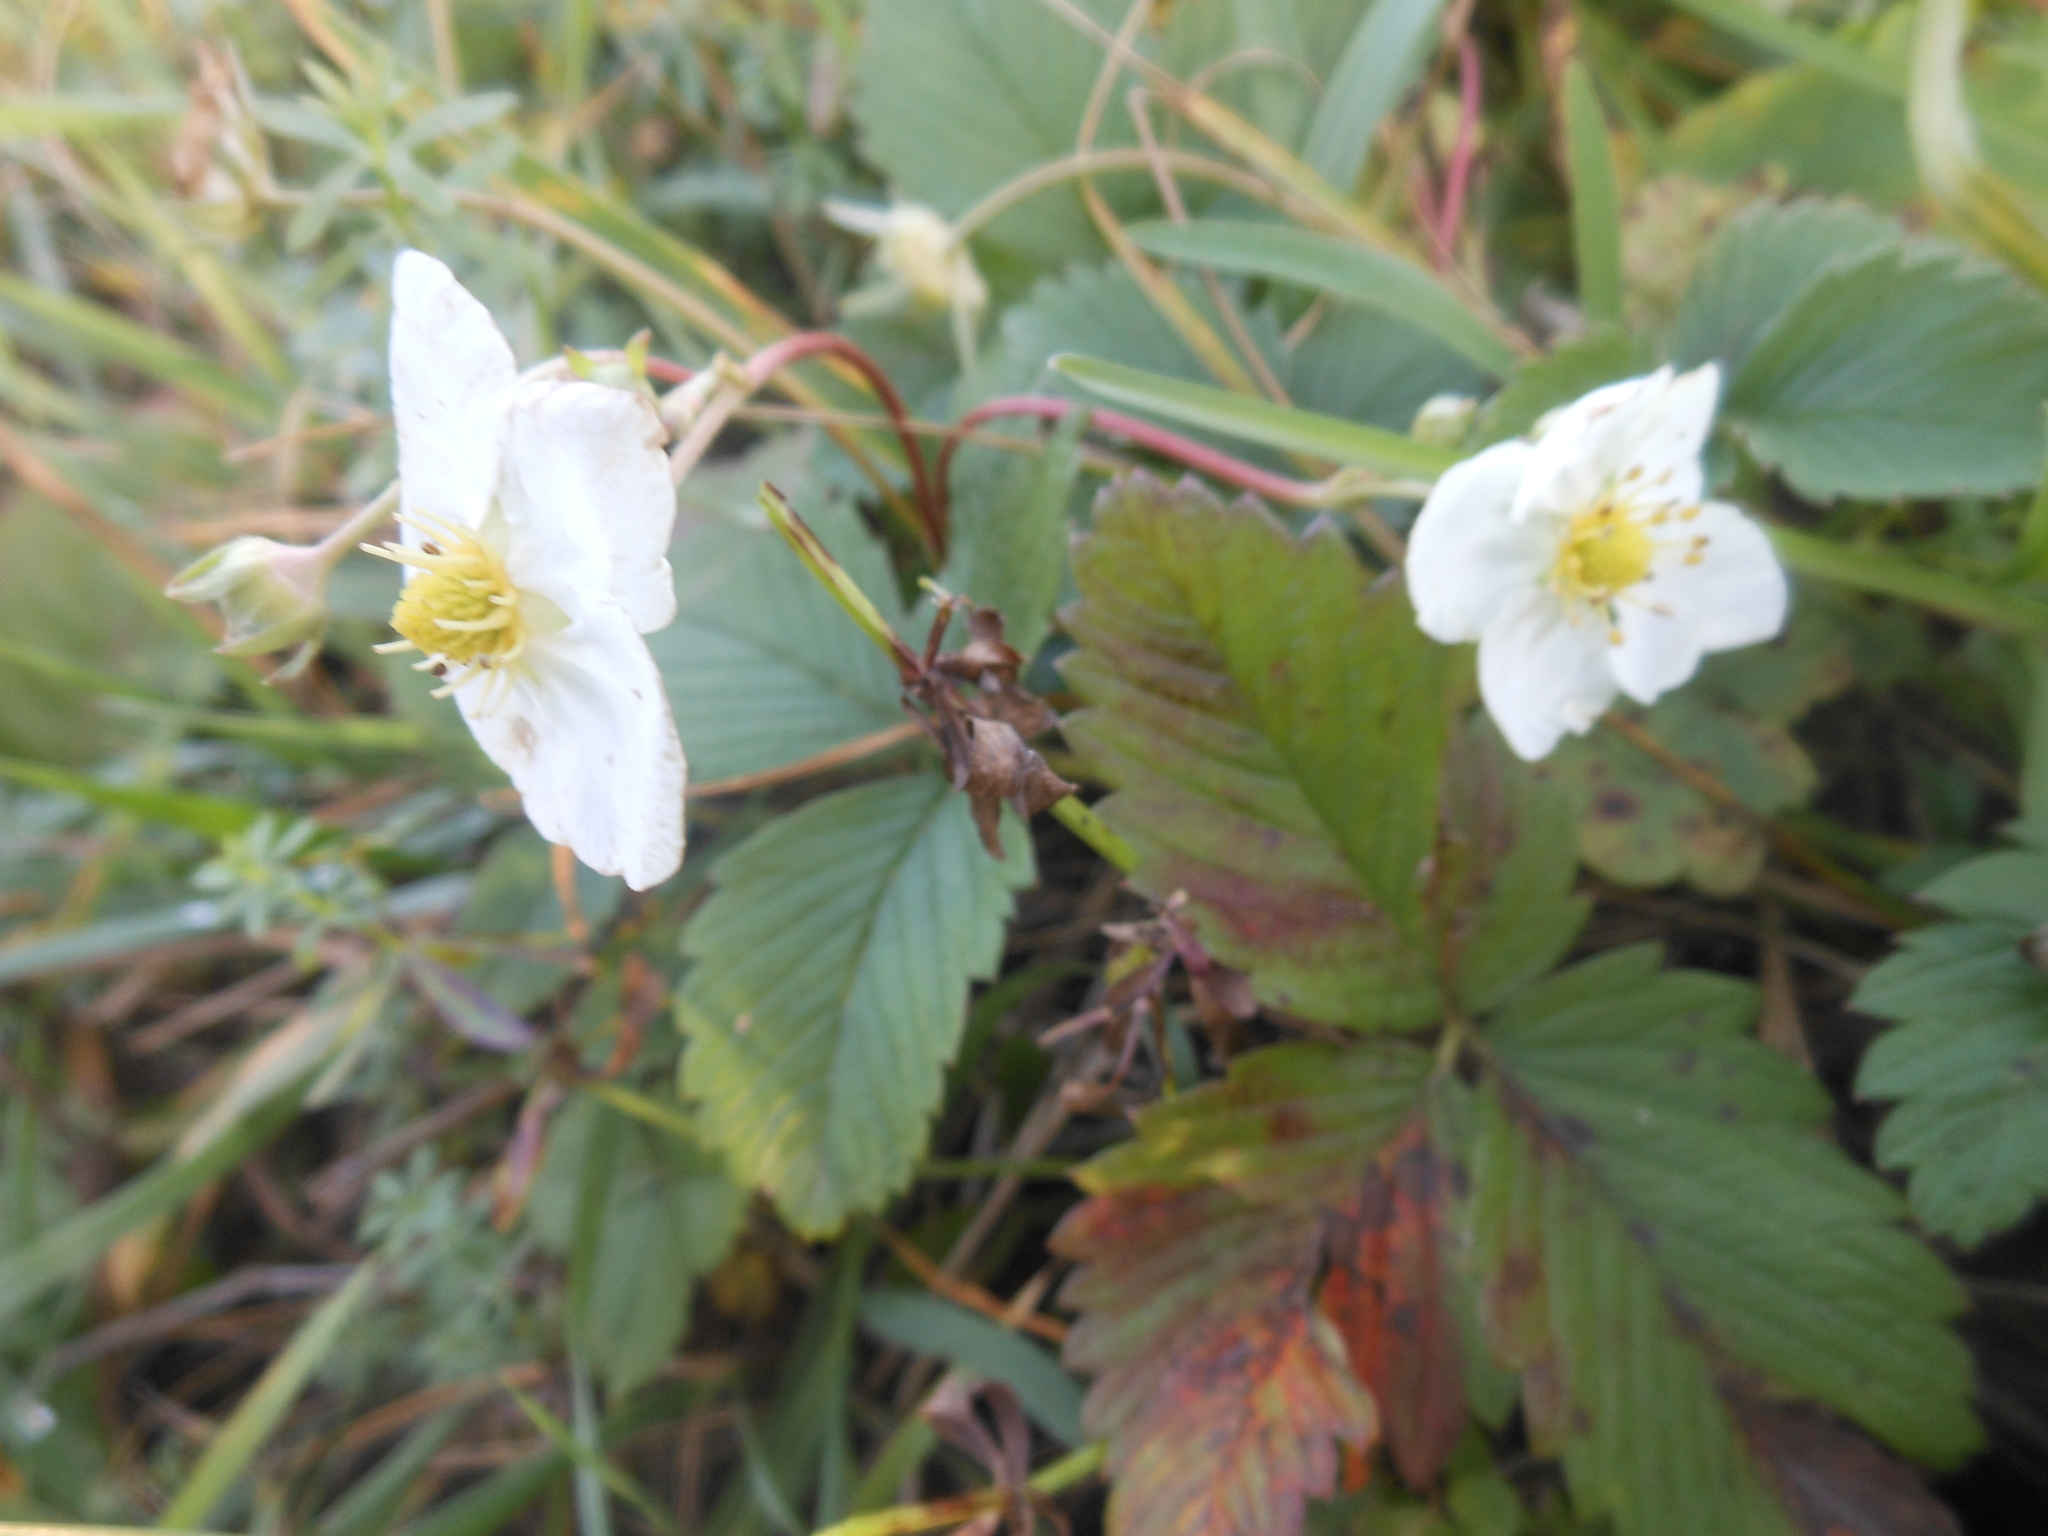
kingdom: Plantae
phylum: Tracheophyta
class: Magnoliopsida
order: Rosales
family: Rosaceae
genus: Fragaria
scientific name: Fragaria viridis
